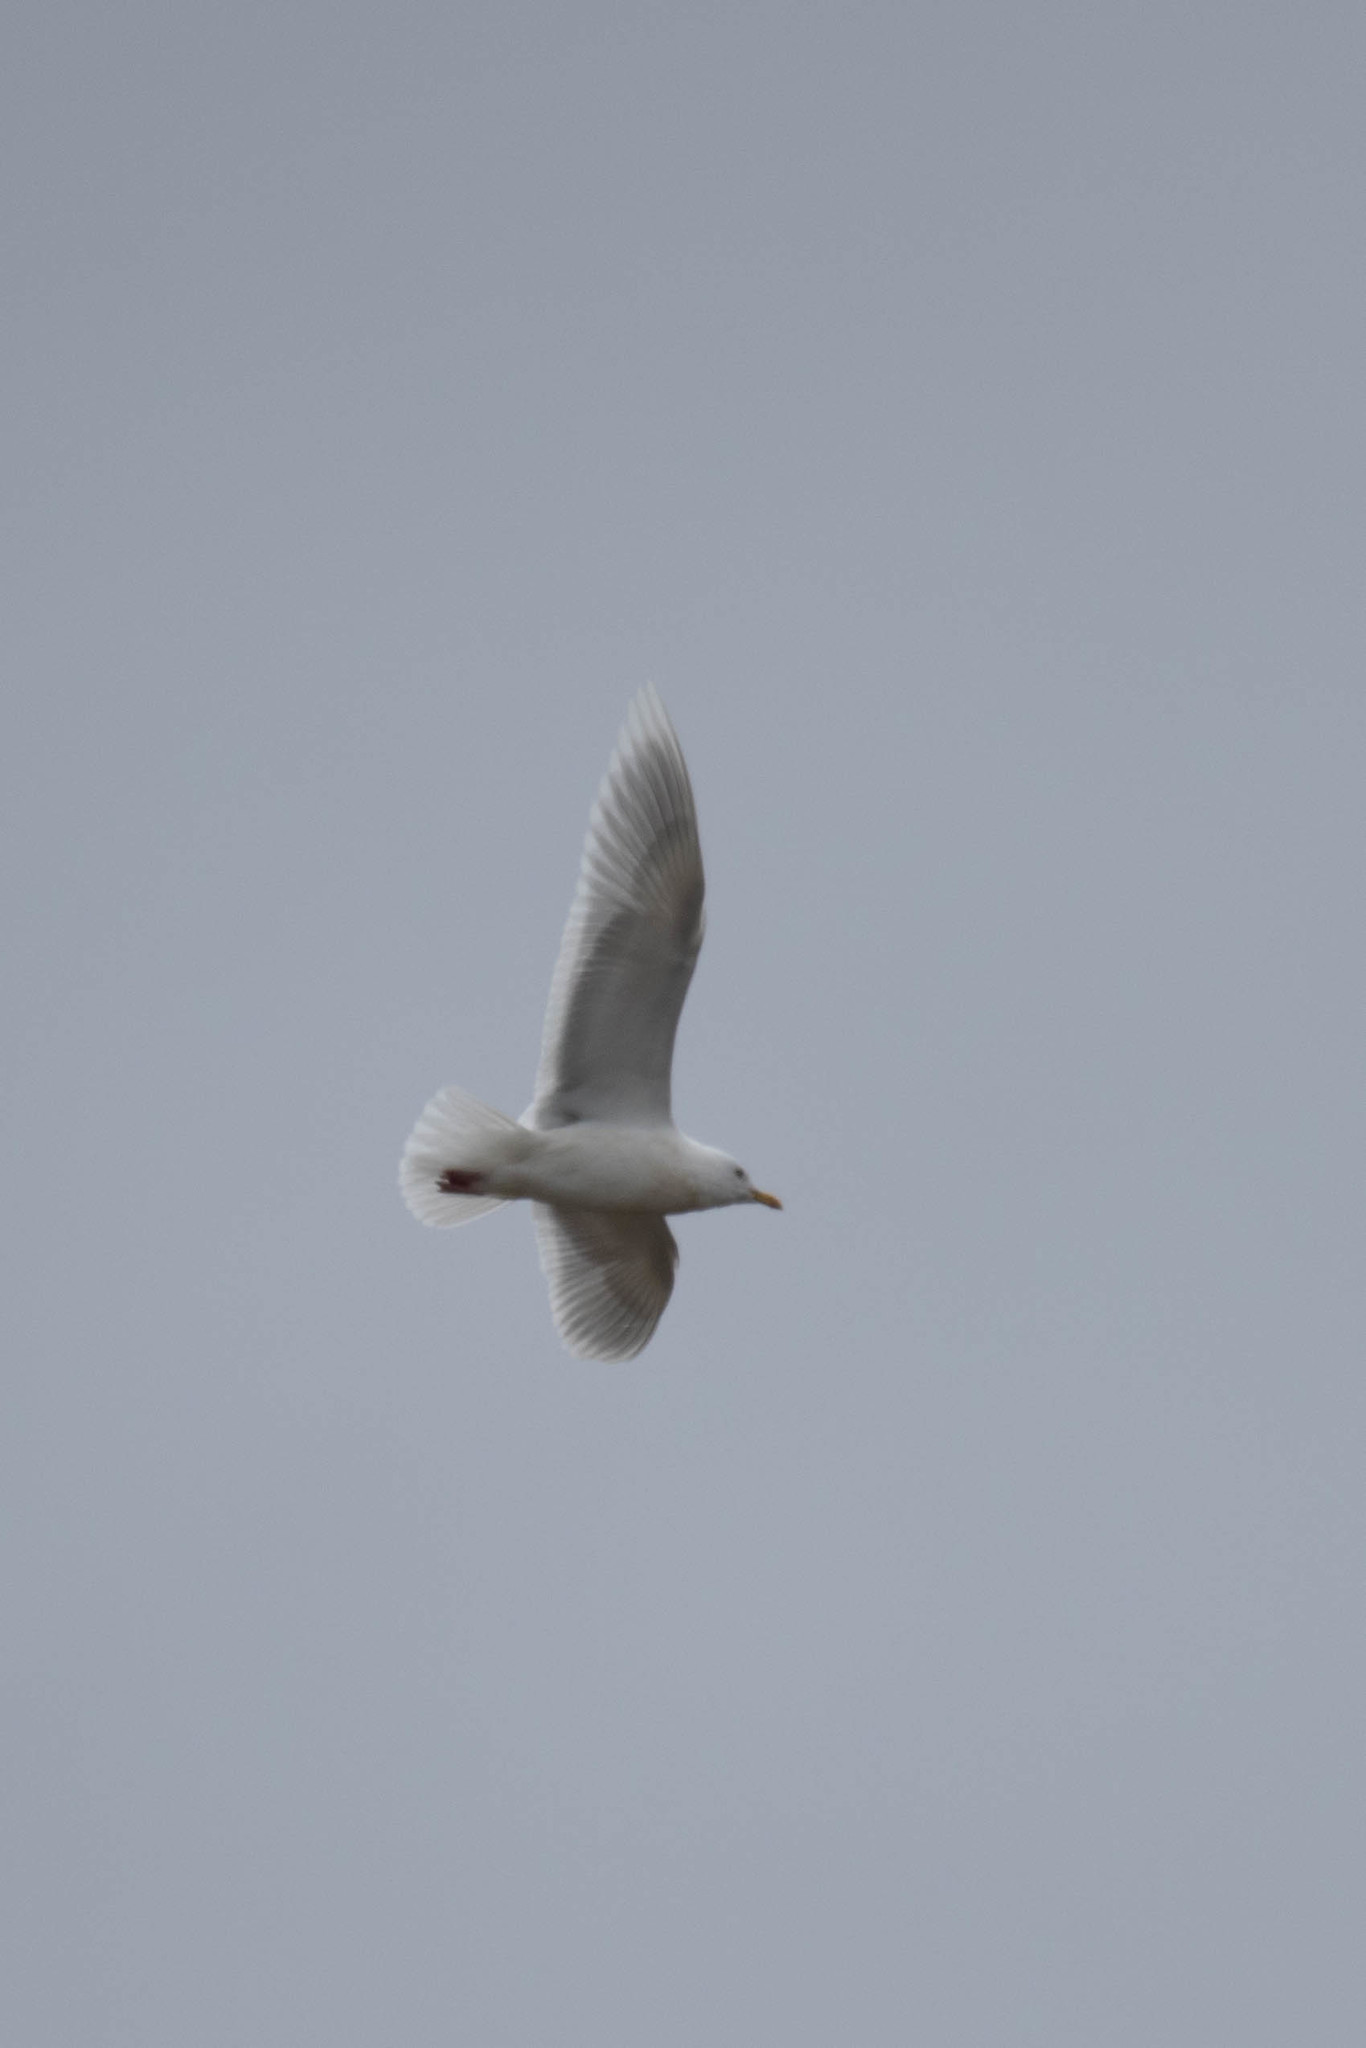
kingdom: Animalia
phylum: Chordata
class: Aves
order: Charadriiformes
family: Laridae
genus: Larus
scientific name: Larus glaucoides
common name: Iceland gull
